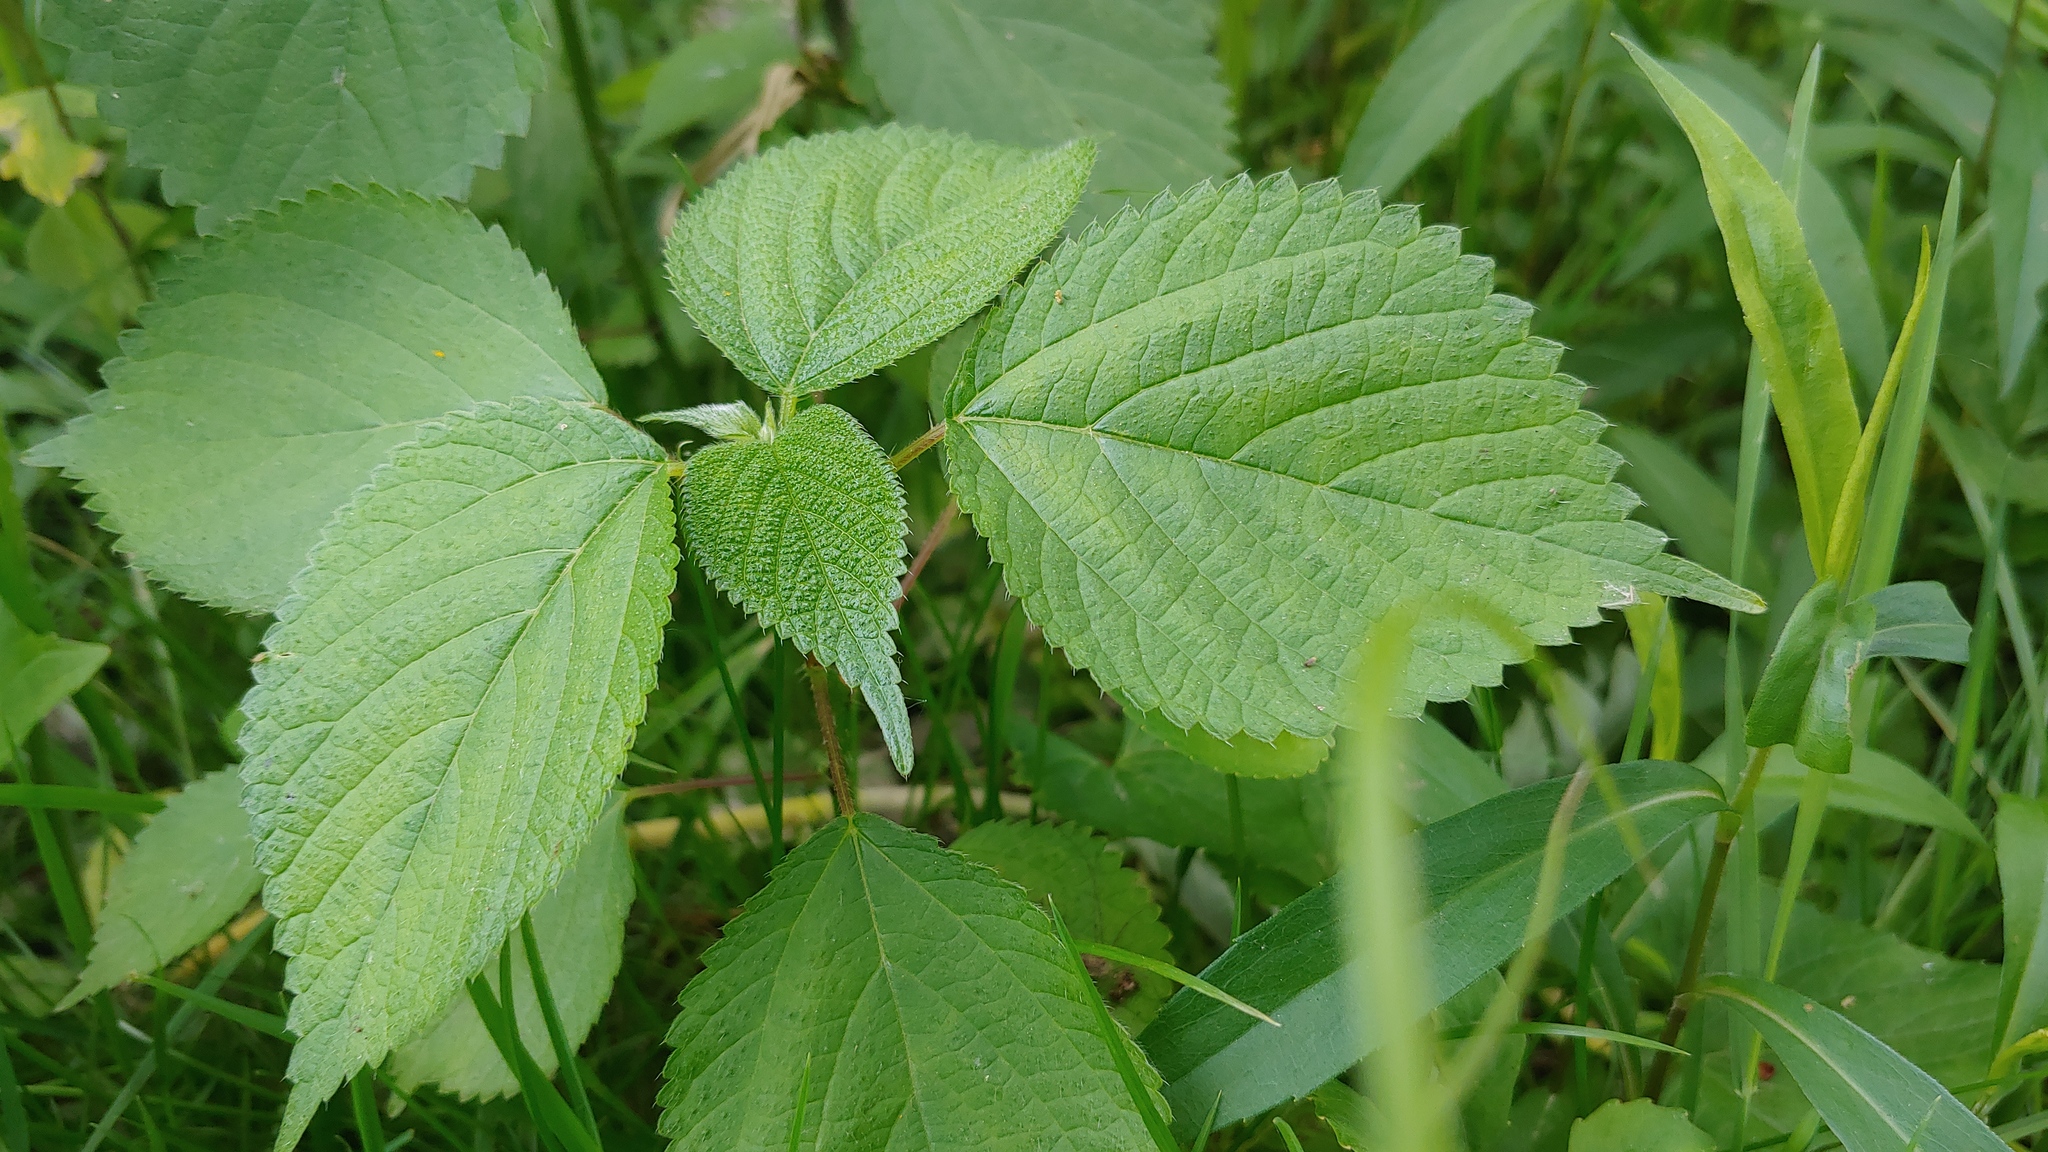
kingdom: Plantae
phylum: Tracheophyta
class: Magnoliopsida
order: Rosales
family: Urticaceae
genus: Laportea
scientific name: Laportea canadensis
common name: Canada nettle
